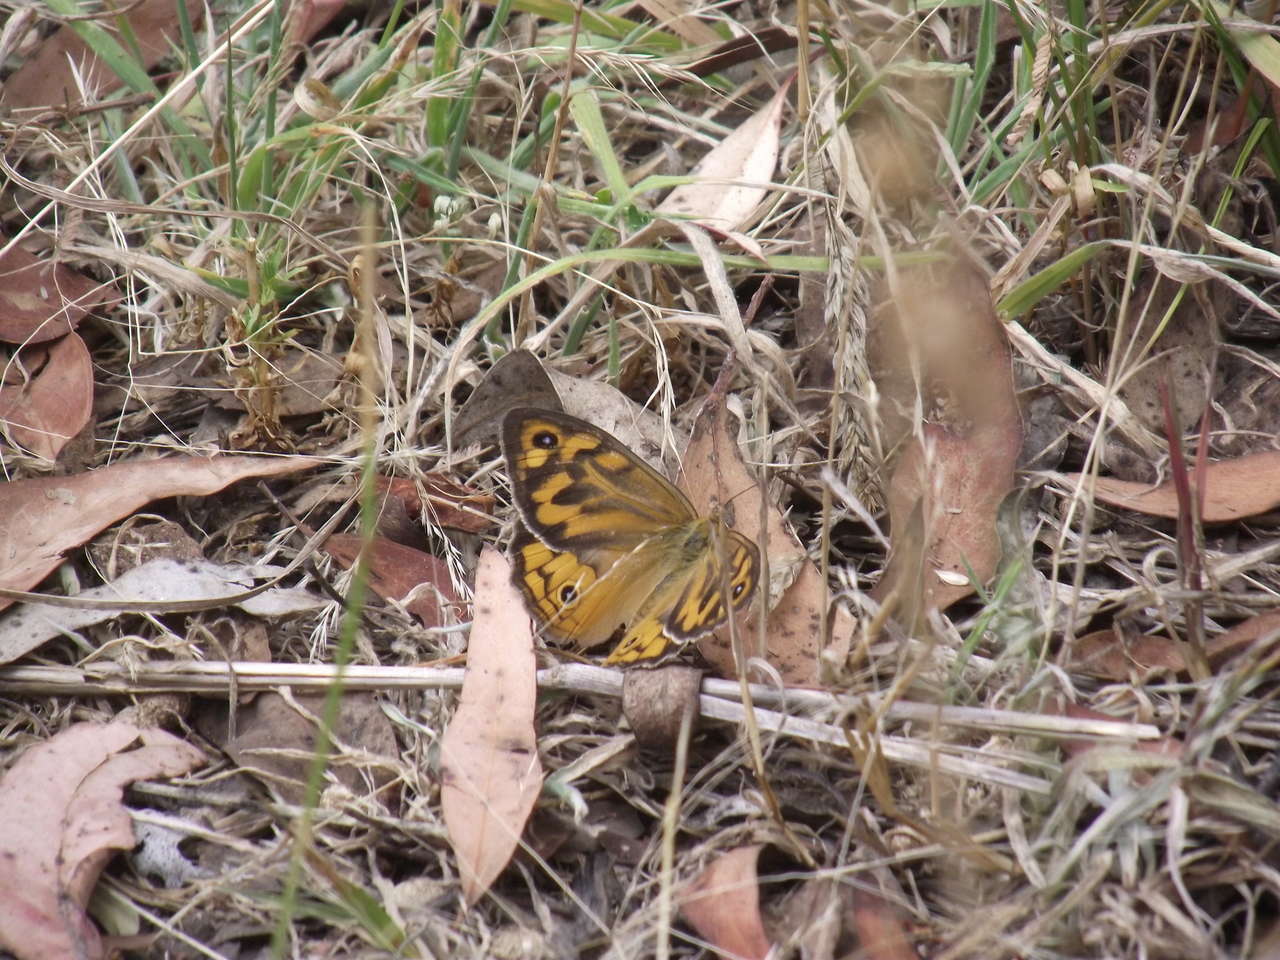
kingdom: Animalia
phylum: Arthropoda
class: Insecta
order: Lepidoptera
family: Nymphalidae
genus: Heteronympha
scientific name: Heteronympha merope
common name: Common brown
